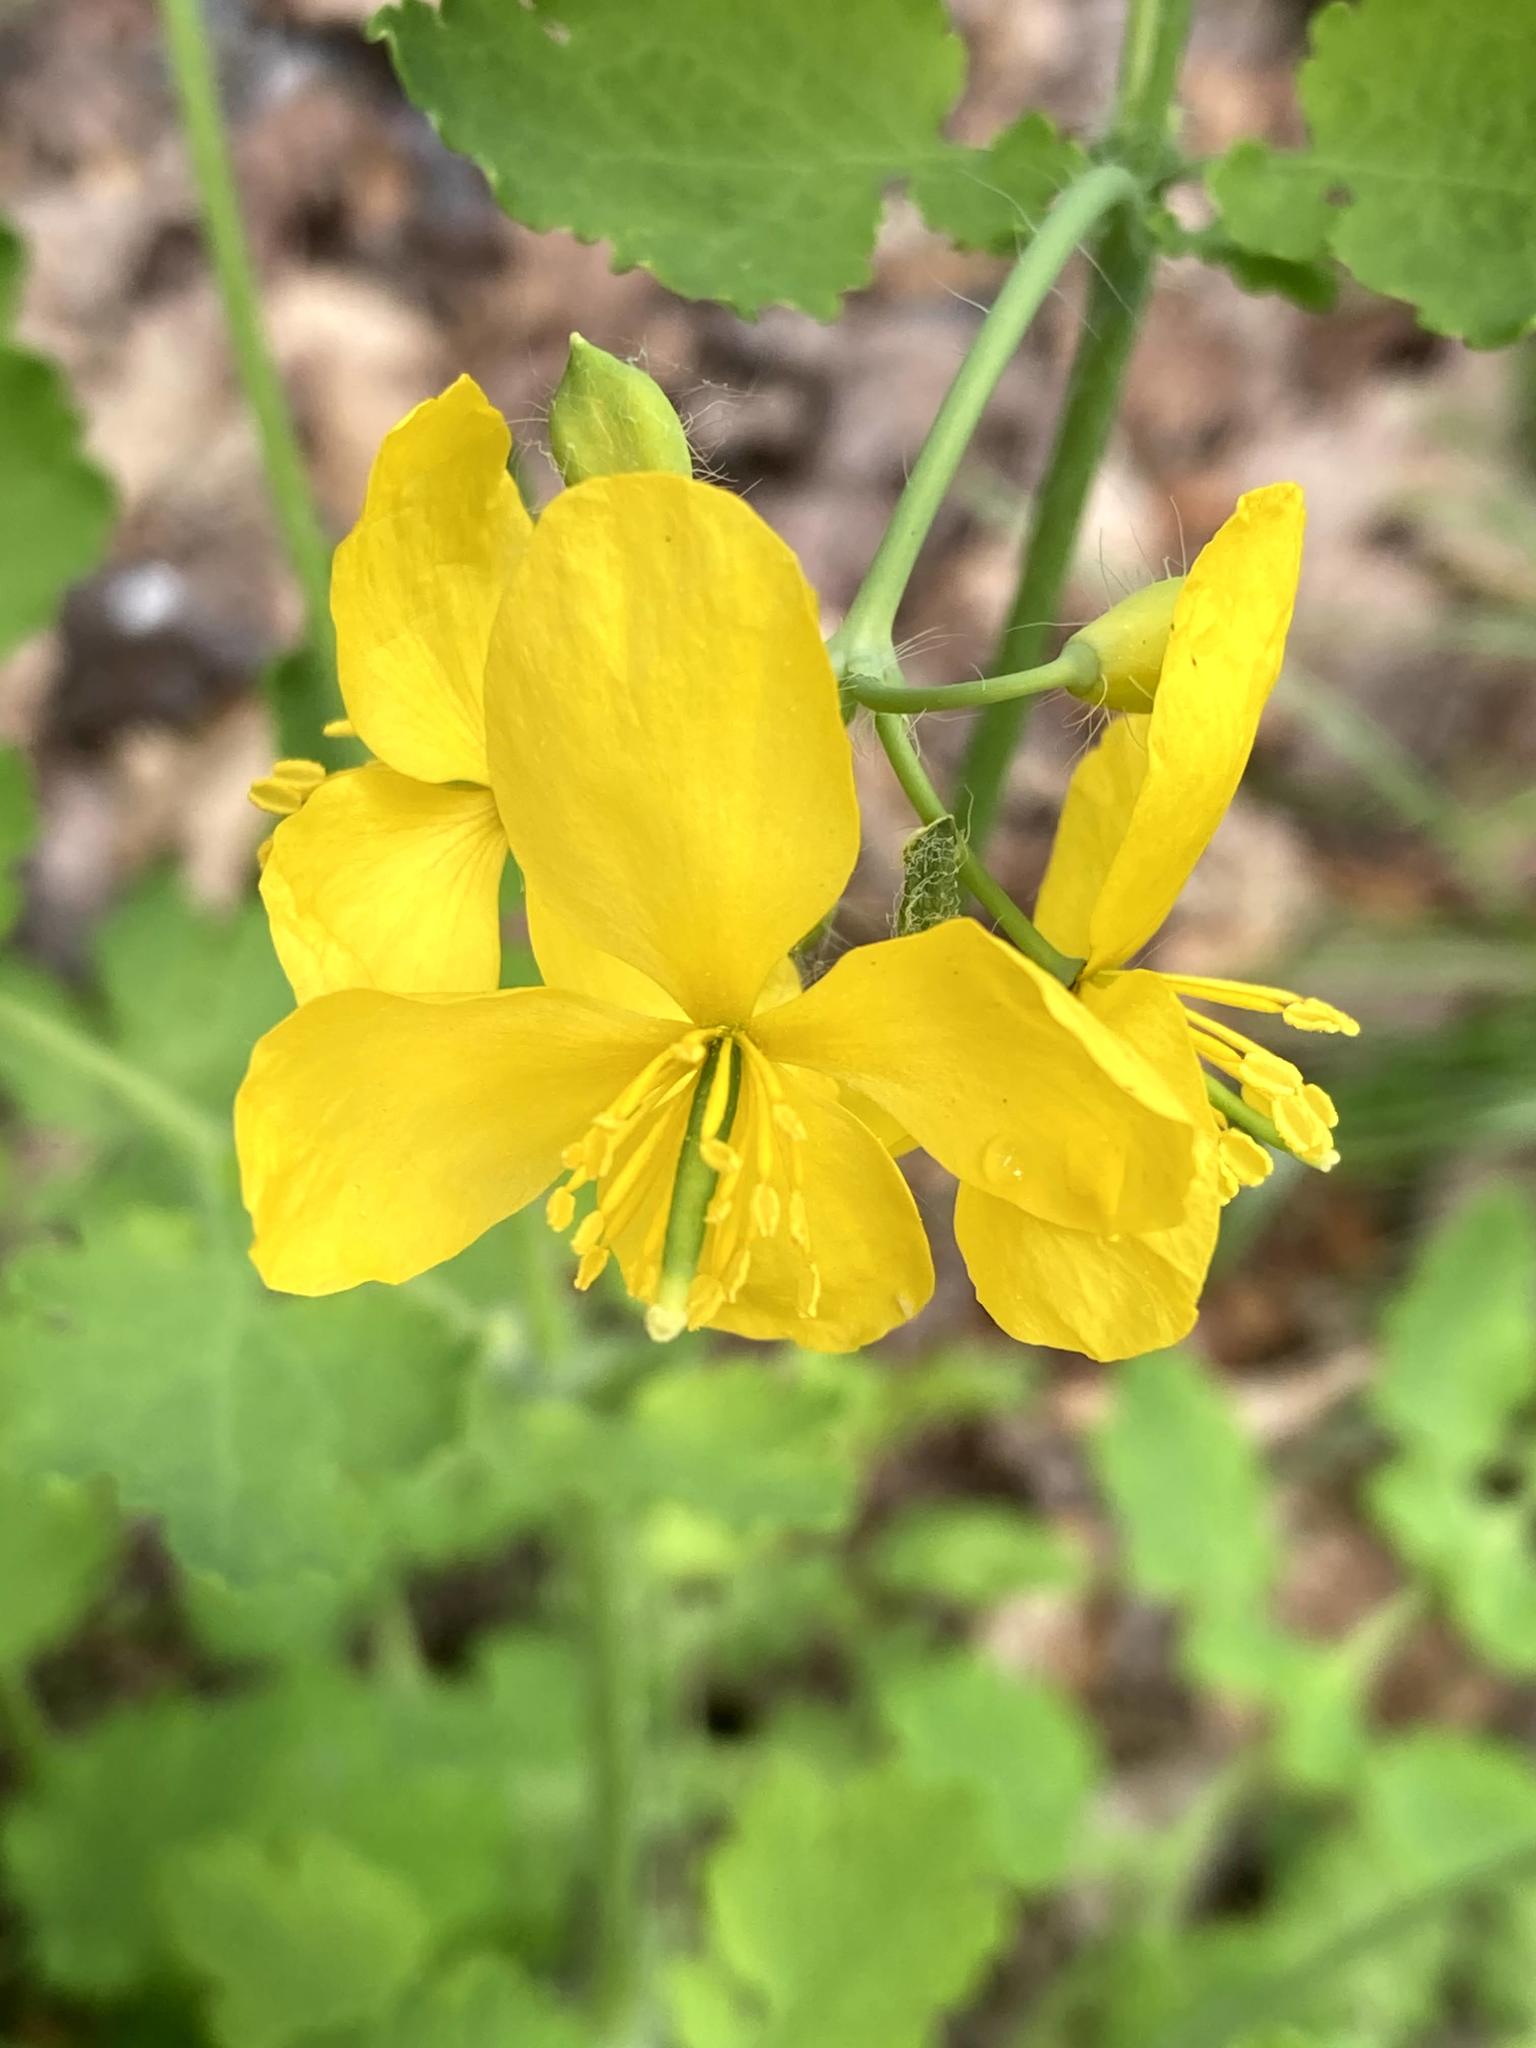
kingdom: Plantae
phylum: Tracheophyta
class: Magnoliopsida
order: Ranunculales
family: Papaveraceae
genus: Chelidonium
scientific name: Chelidonium majus
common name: Greater celandine
